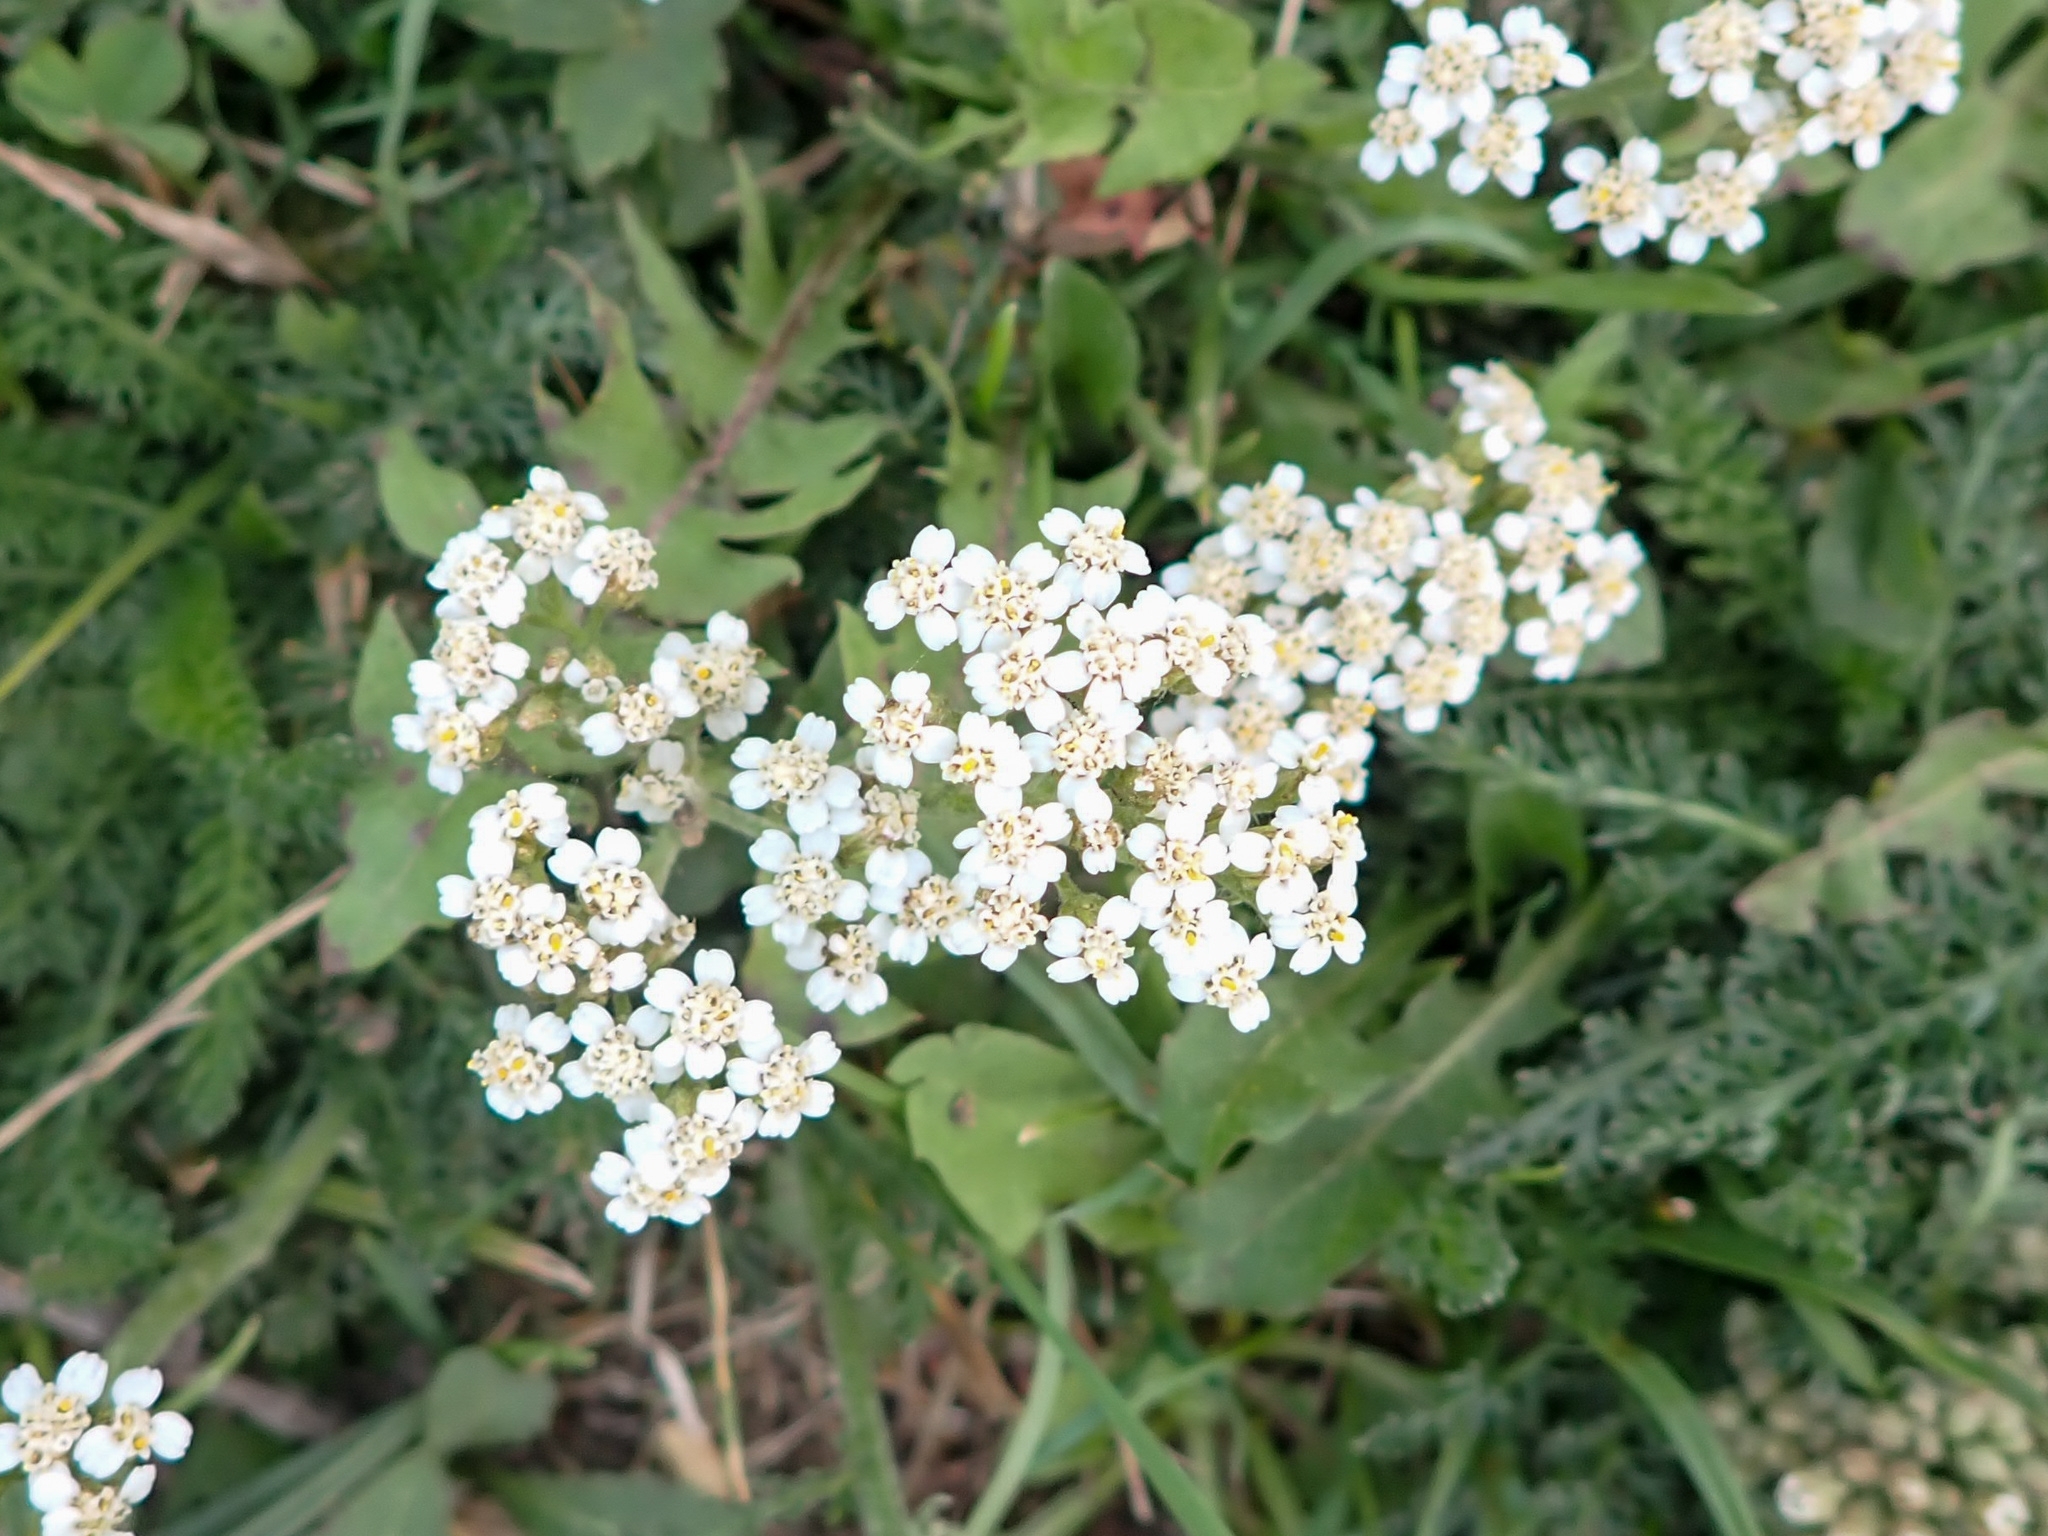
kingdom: Plantae
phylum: Tracheophyta
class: Magnoliopsida
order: Asterales
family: Asteraceae
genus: Achillea
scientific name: Achillea millefolium
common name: Yarrow
